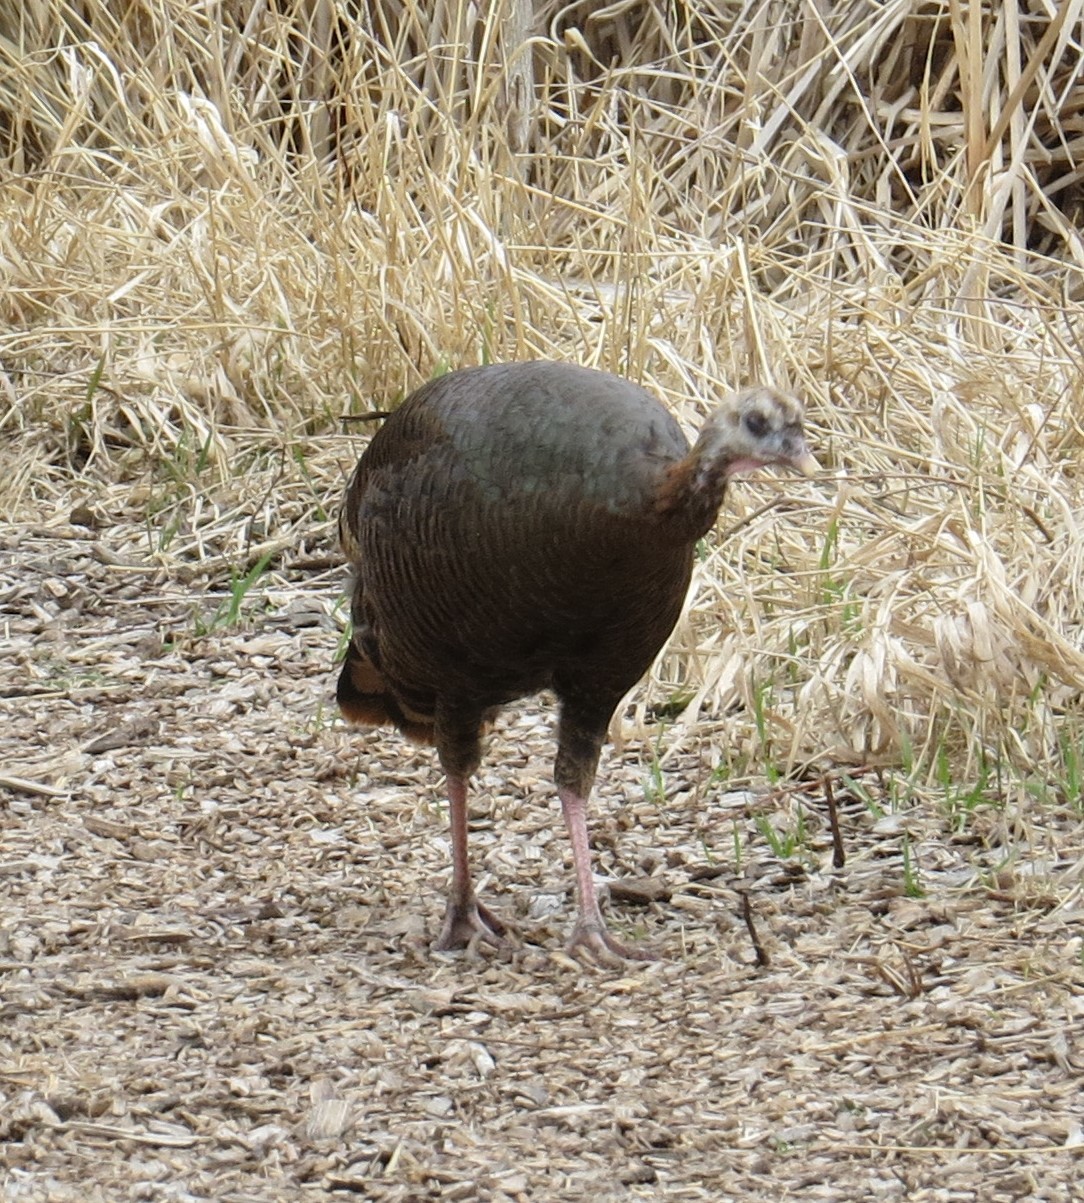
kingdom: Animalia
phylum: Chordata
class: Aves
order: Galliformes
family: Phasianidae
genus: Meleagris
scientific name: Meleagris gallopavo
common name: Wild turkey
